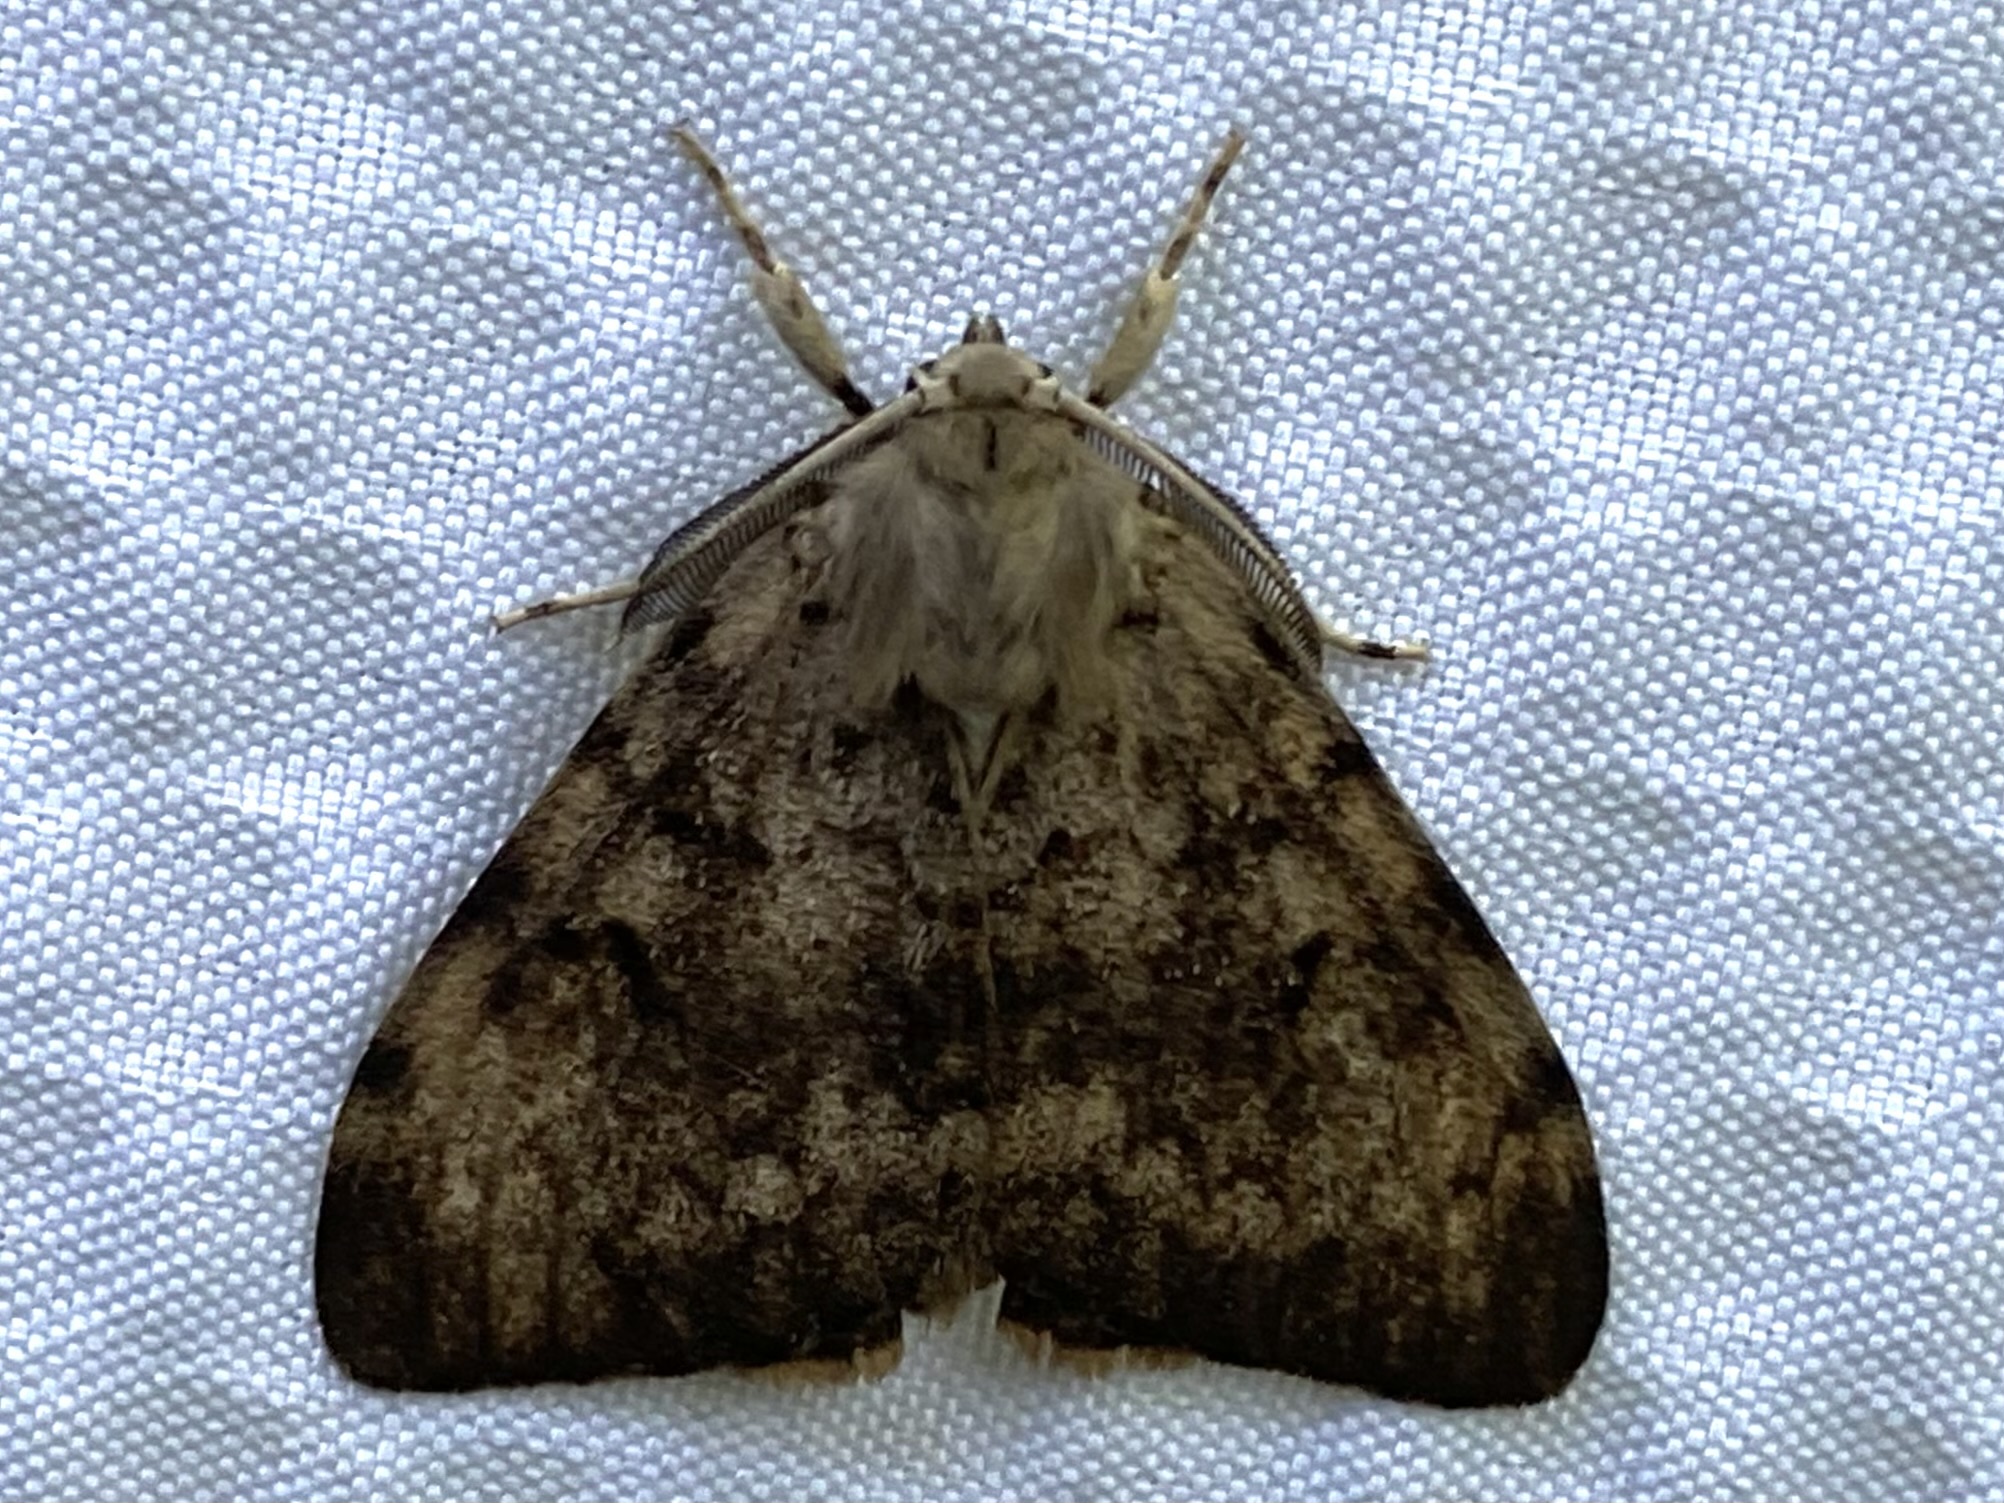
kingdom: Animalia
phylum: Arthropoda
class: Insecta
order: Lepidoptera
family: Erebidae
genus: Lymantria
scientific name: Lymantria dispar
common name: Gypsy moth
